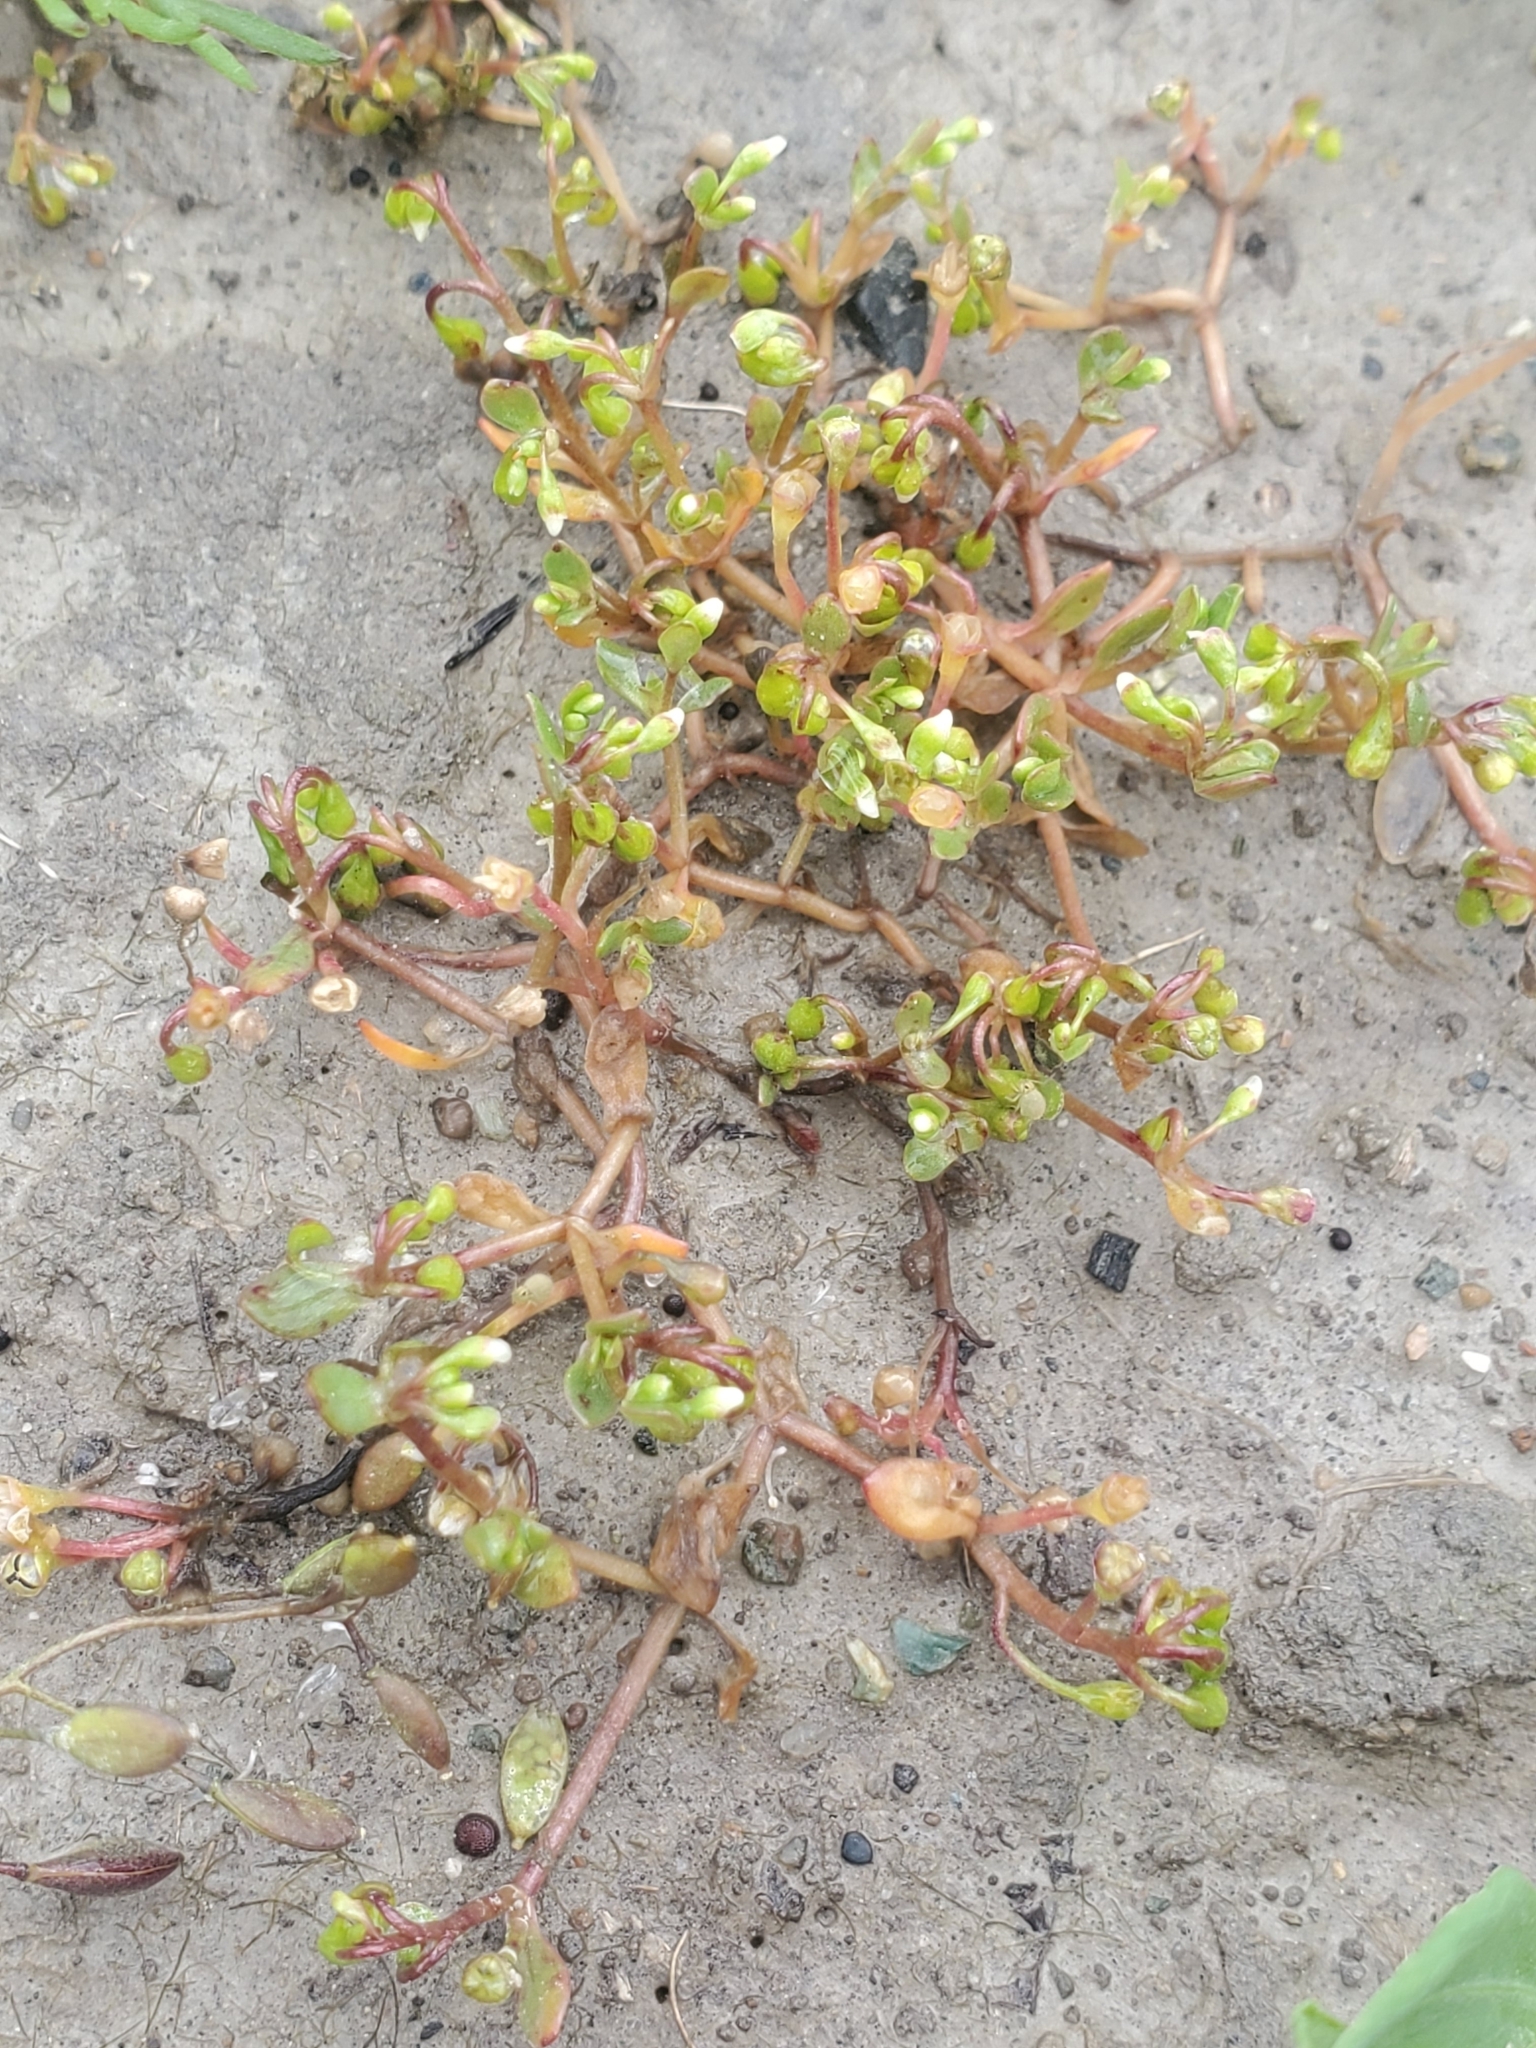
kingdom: Plantae
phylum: Tracheophyta
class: Magnoliopsida
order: Caryophyllales
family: Montiaceae
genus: Montia
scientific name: Montia fontana
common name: Blinks
